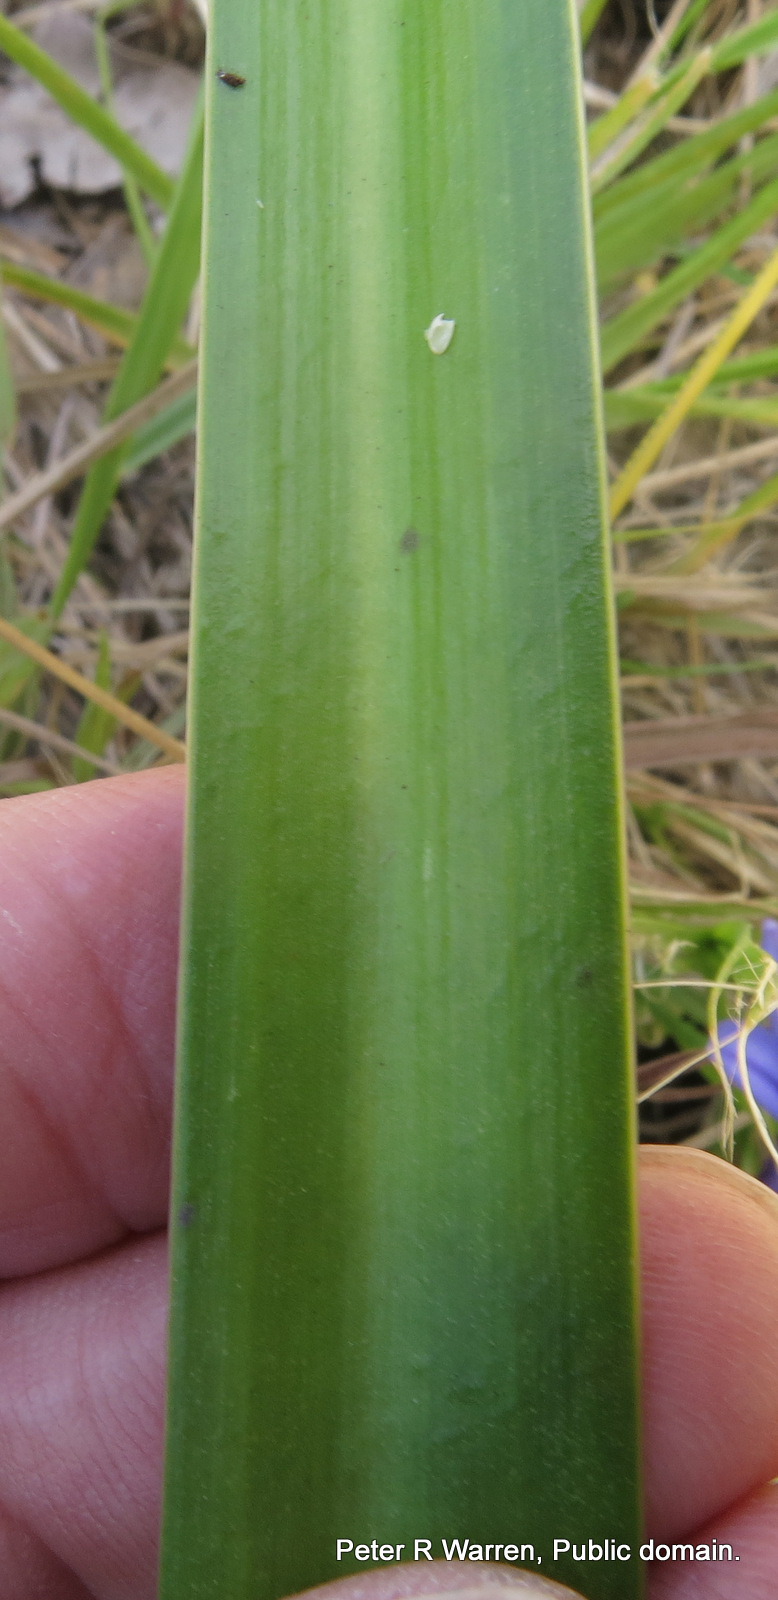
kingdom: Plantae
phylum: Tracheophyta
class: Liliopsida
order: Asparagales
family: Amaryllidaceae
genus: Agapanthus
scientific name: Agapanthus campanulatus
